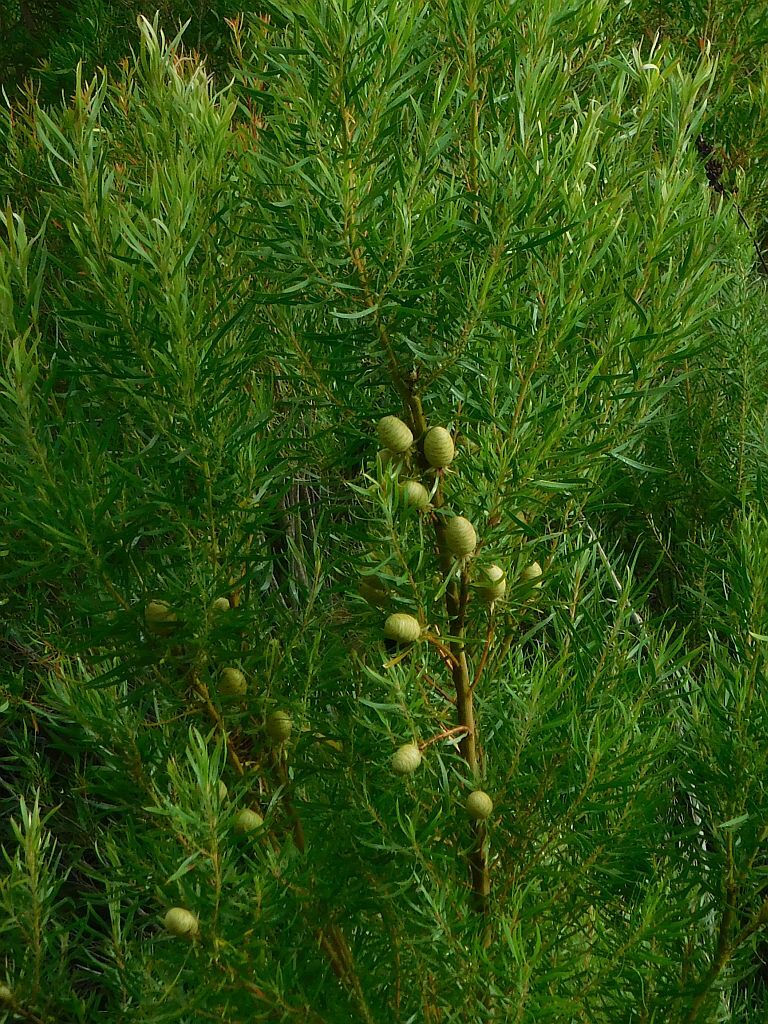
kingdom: Plantae
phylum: Tracheophyta
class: Magnoliopsida
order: Proteales
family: Proteaceae
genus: Leucadendron
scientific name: Leucadendron salicifolium
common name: Common stream conebush
